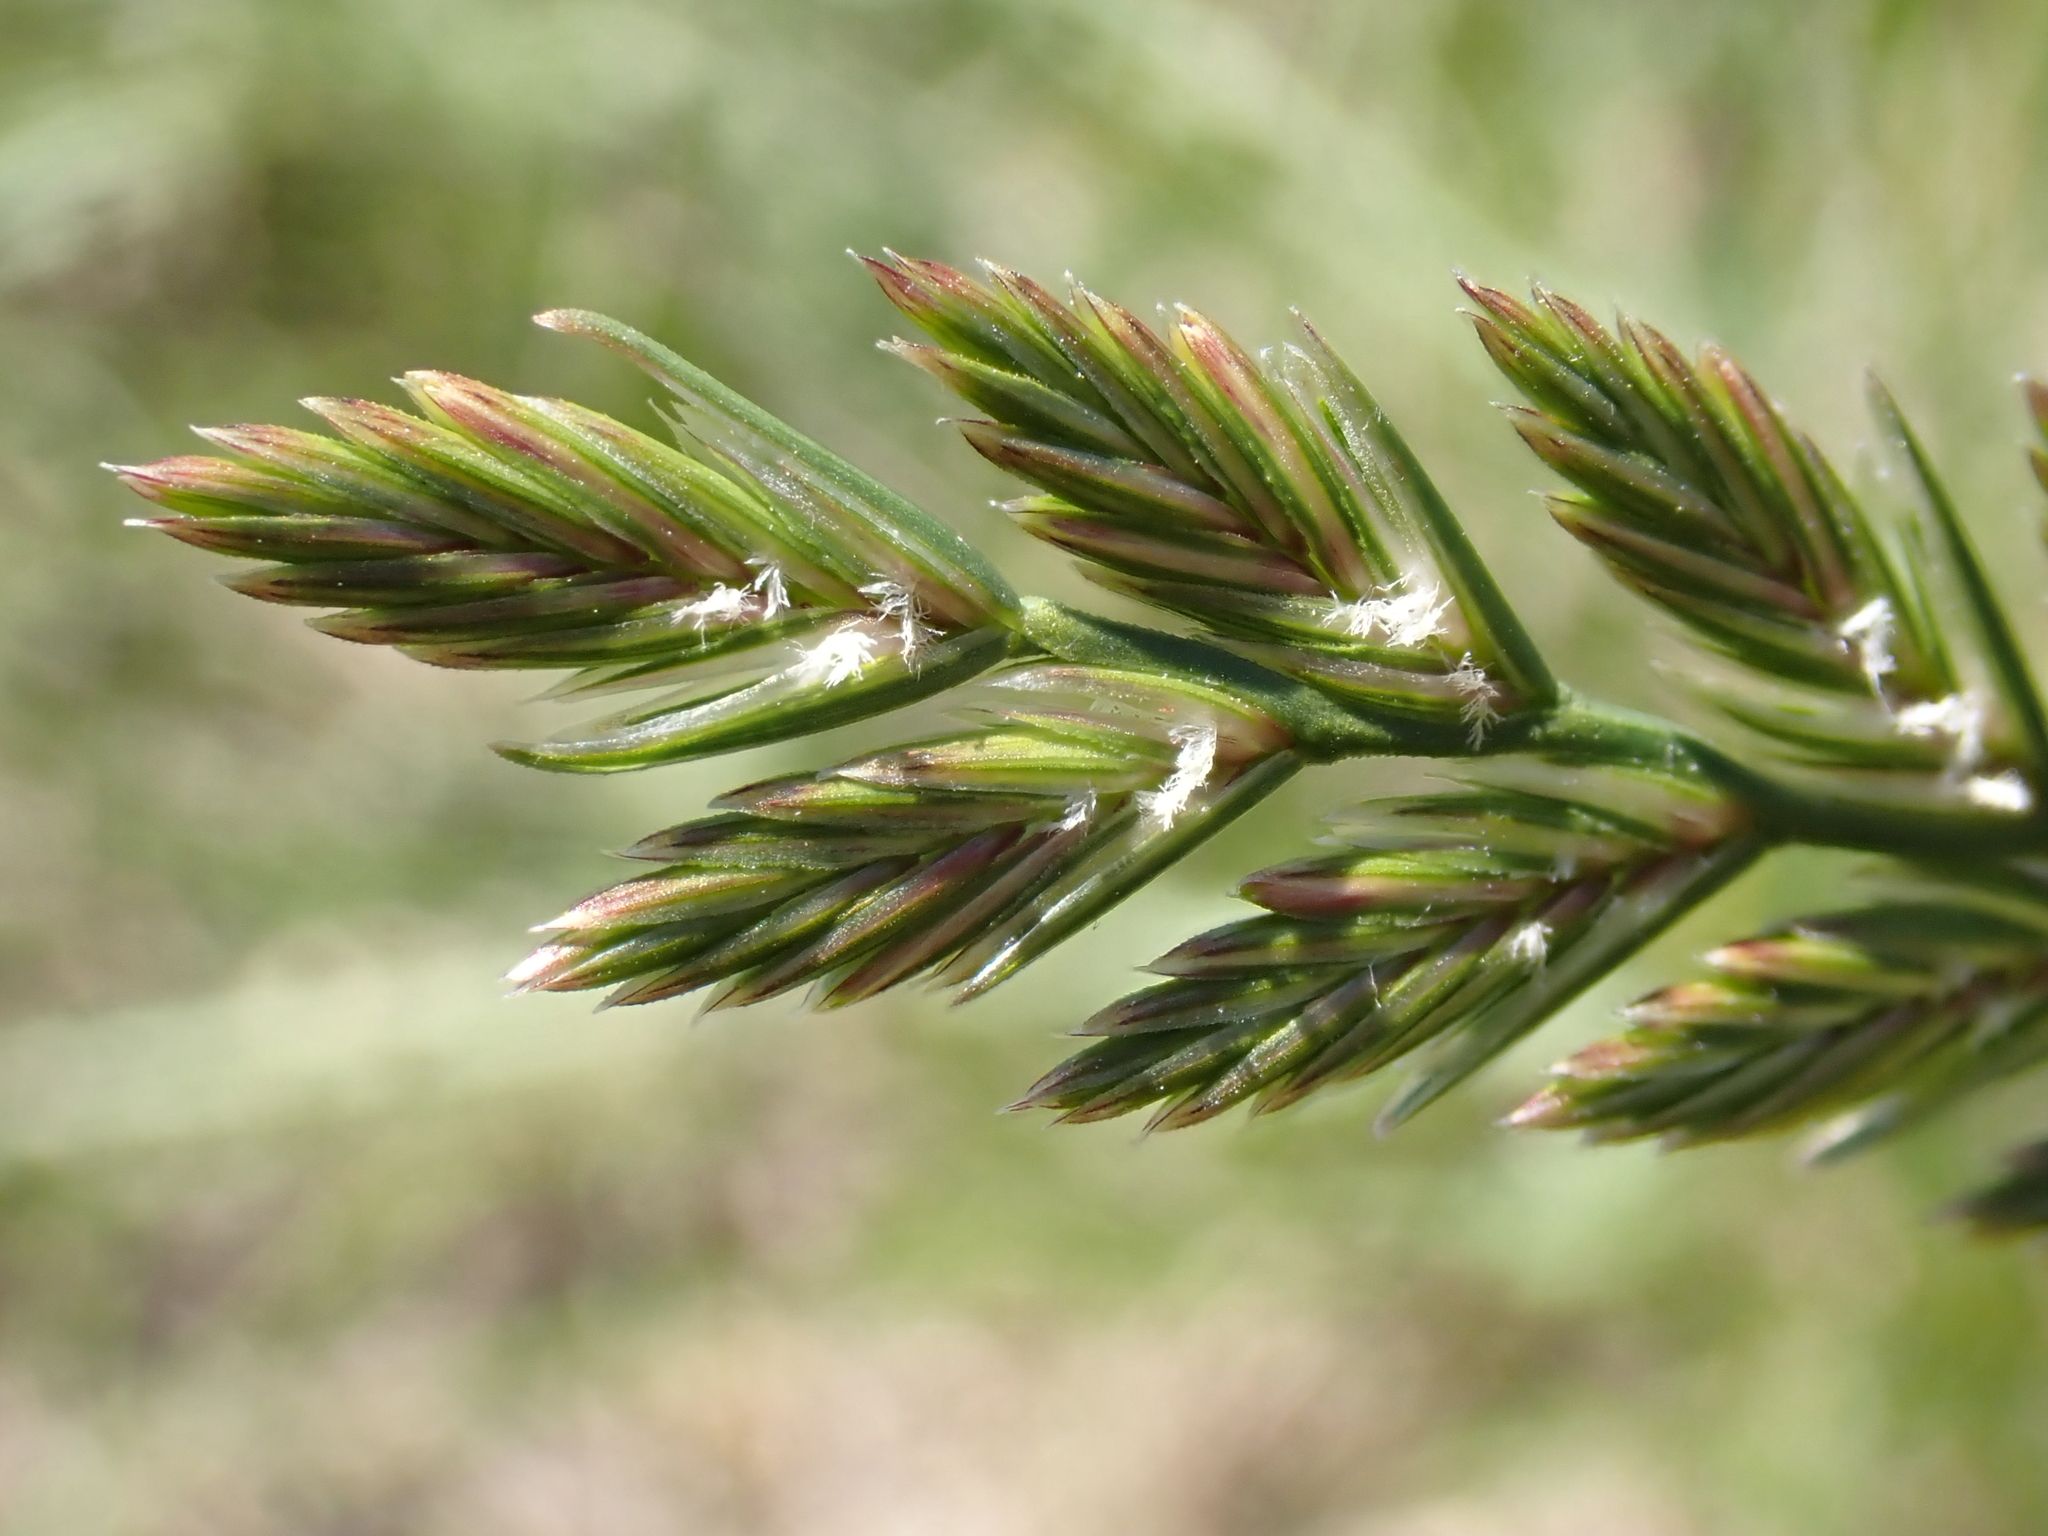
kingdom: Plantae
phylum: Tracheophyta
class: Liliopsida
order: Poales
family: Poaceae
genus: Lolium
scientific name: Lolium perenne
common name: Perennial ryegrass
